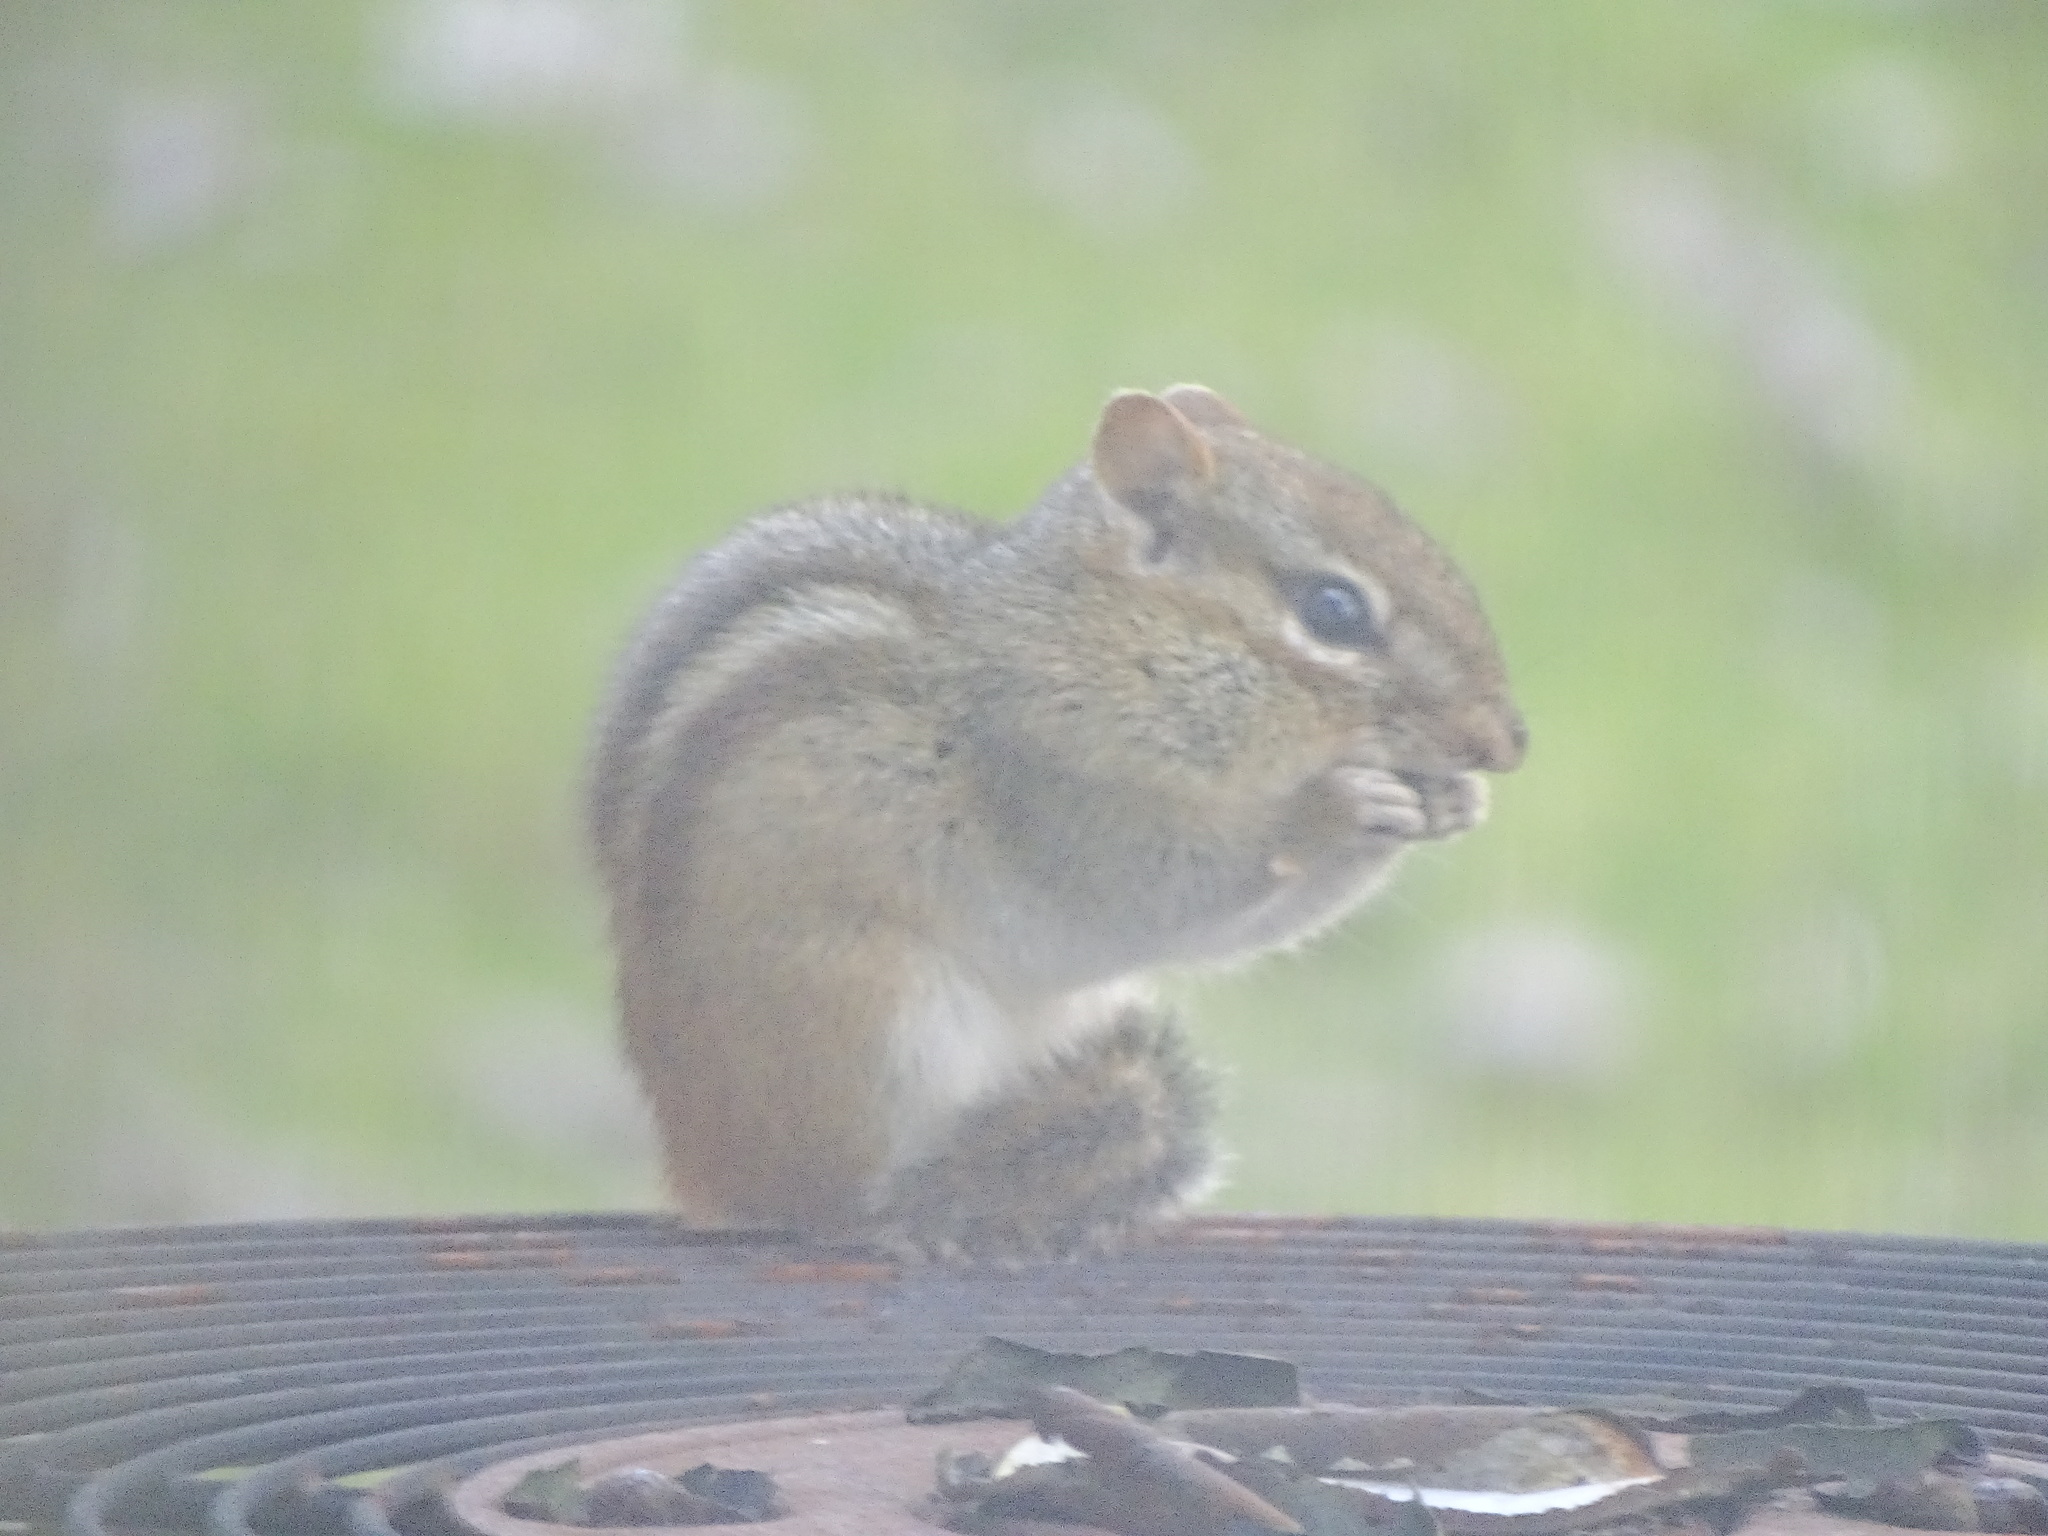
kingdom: Animalia
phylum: Chordata
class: Mammalia
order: Rodentia
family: Sciuridae
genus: Tamias
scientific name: Tamias striatus
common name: Eastern chipmunk
